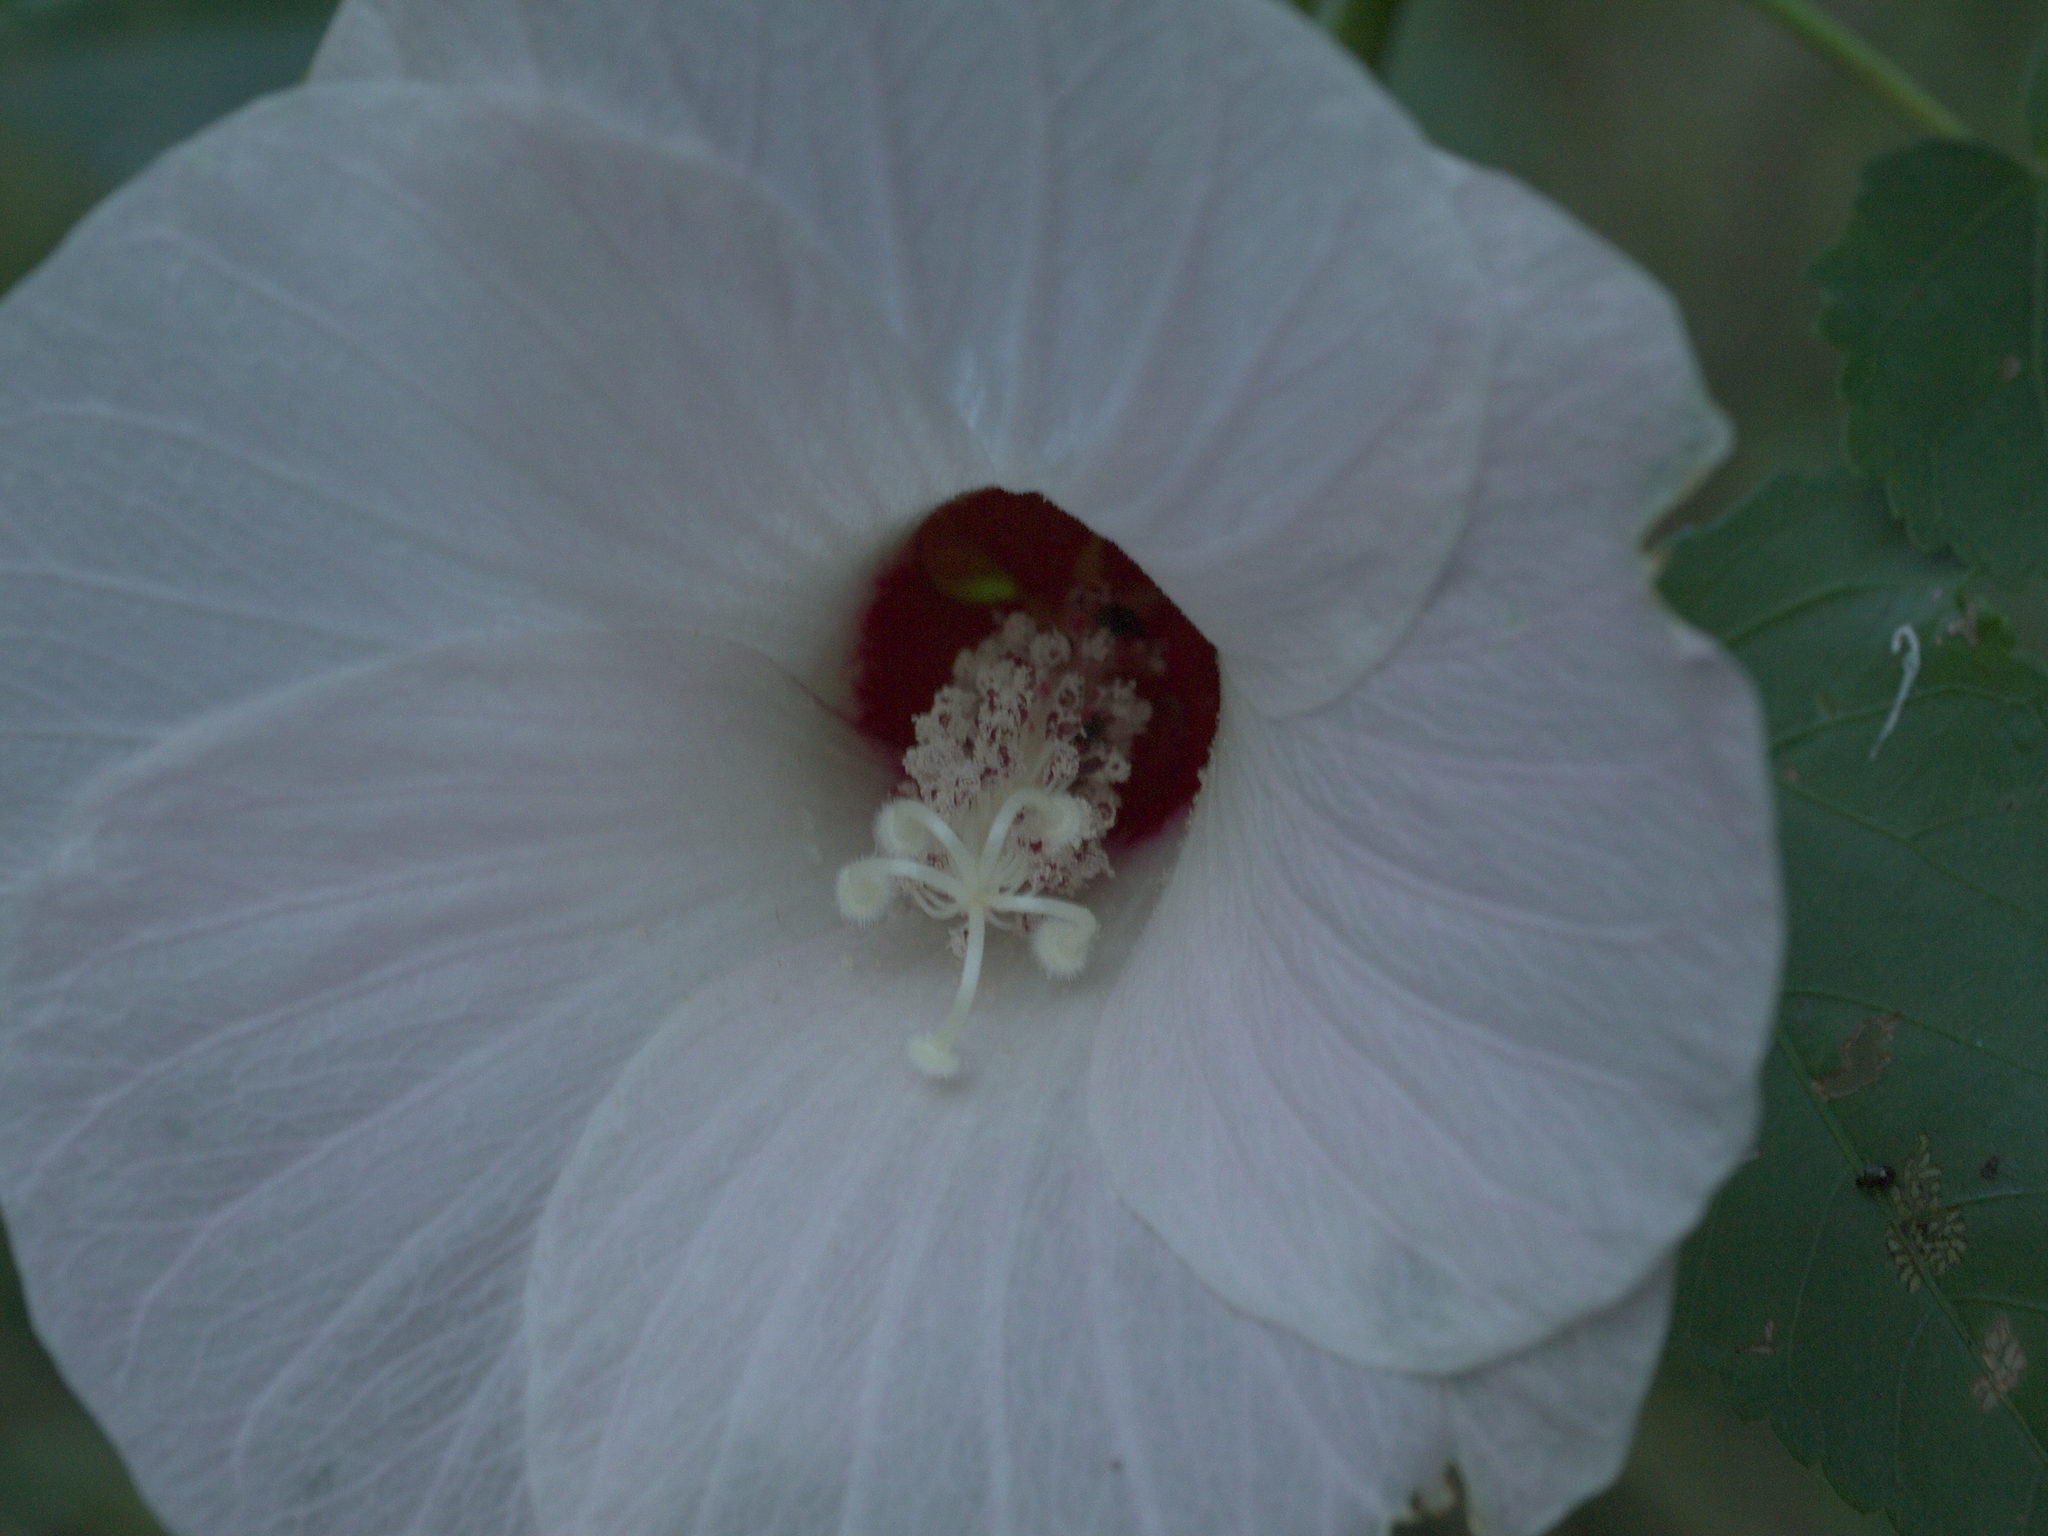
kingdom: Plantae
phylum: Tracheophyta
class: Magnoliopsida
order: Malvales
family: Malvaceae
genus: Hibiscus
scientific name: Hibiscus laevis
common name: Scarlet rose-mallow
